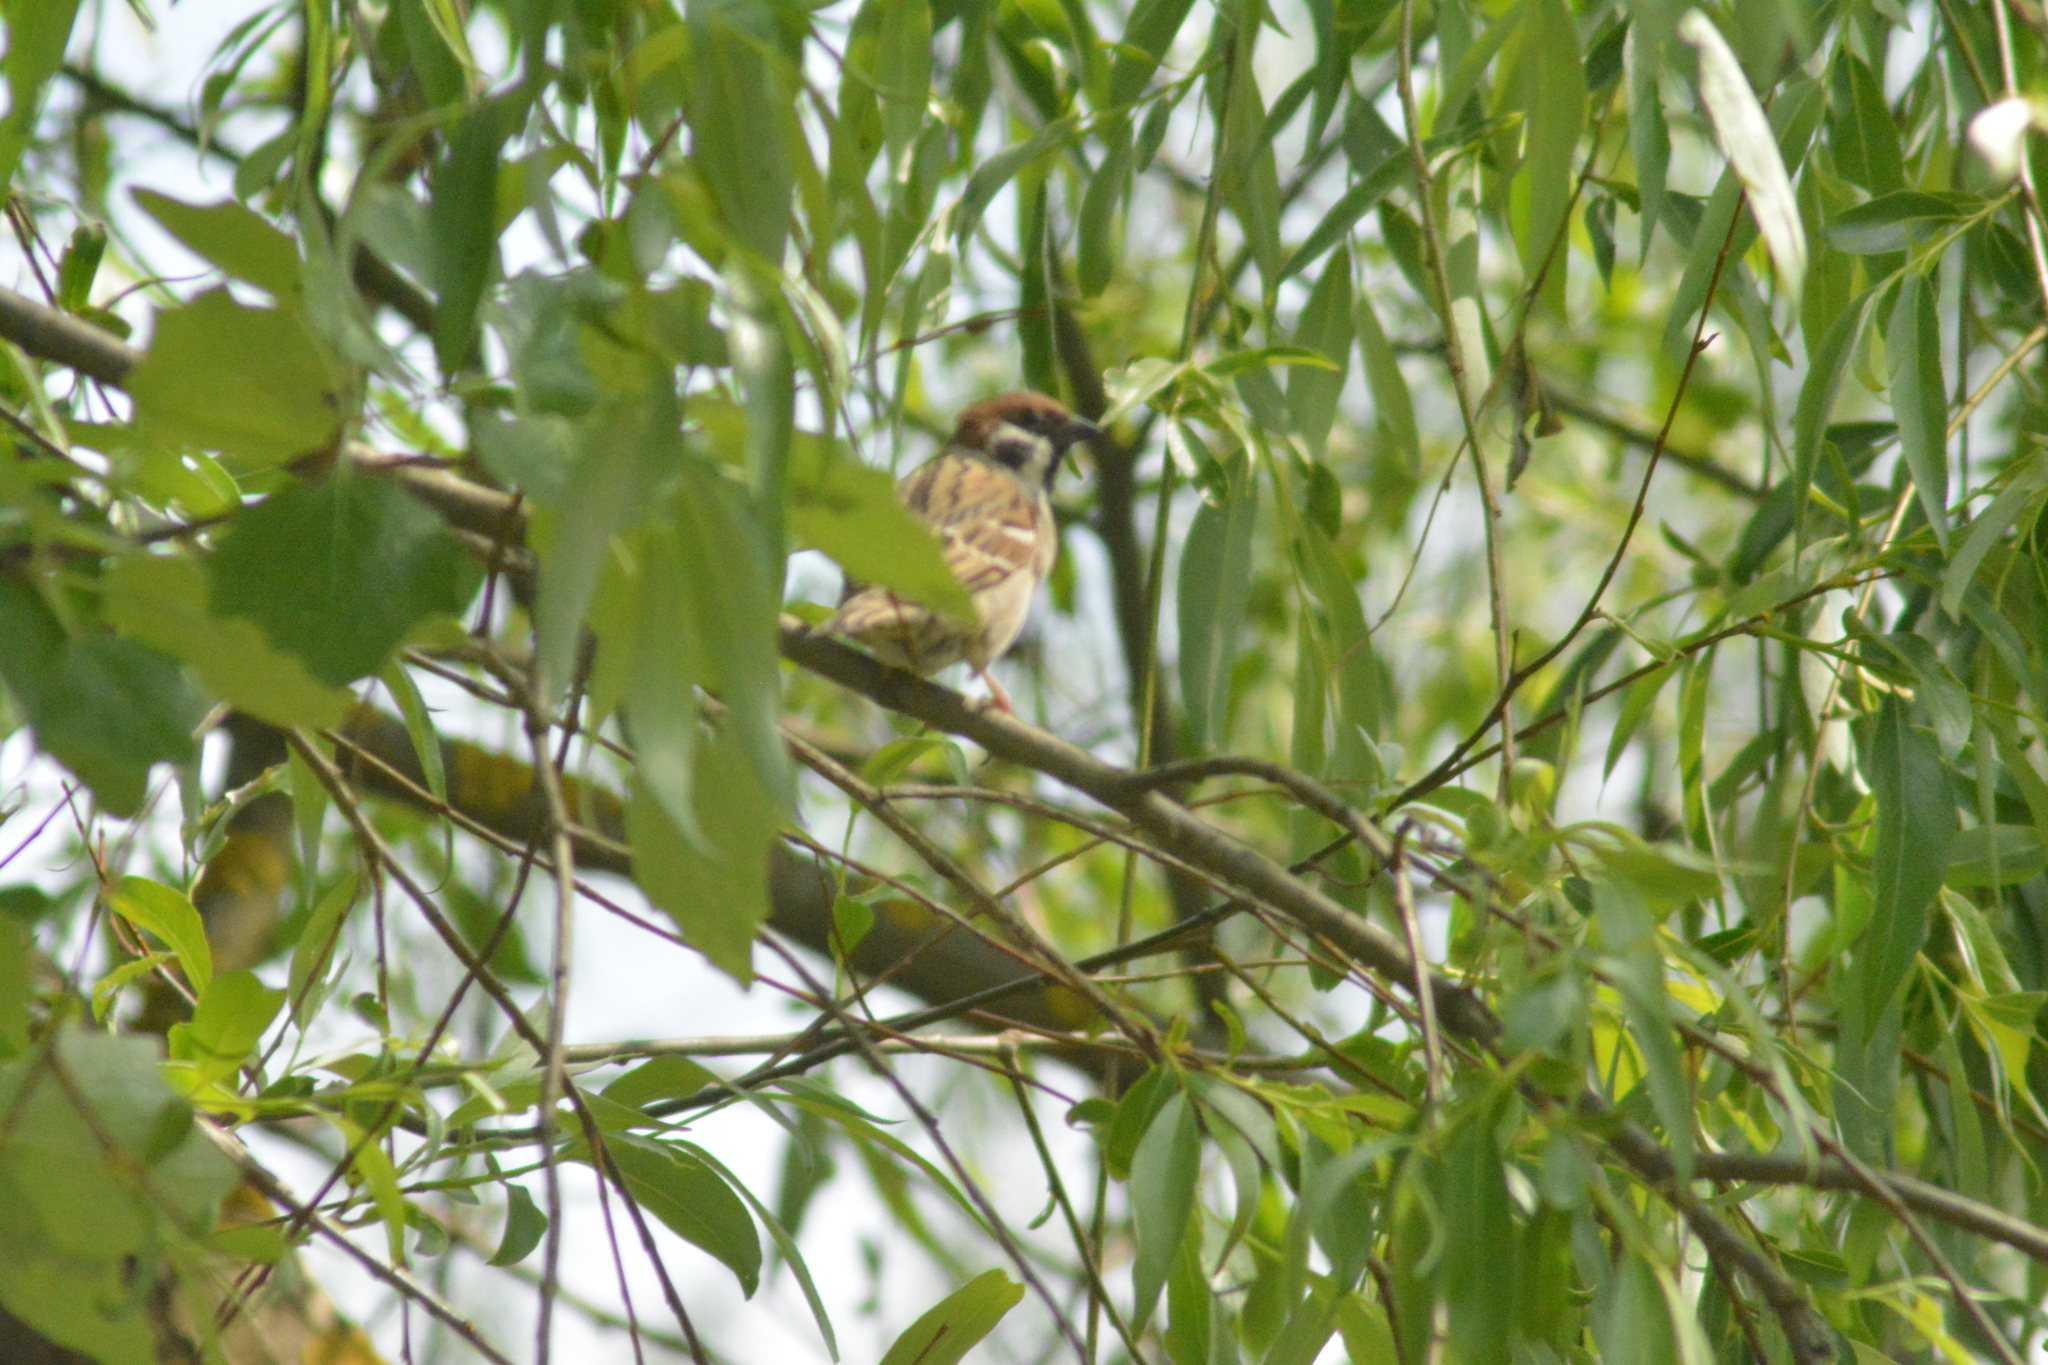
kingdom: Animalia
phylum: Chordata
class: Aves
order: Passeriformes
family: Passeridae
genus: Passer
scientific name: Passer montanus
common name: Eurasian tree sparrow
